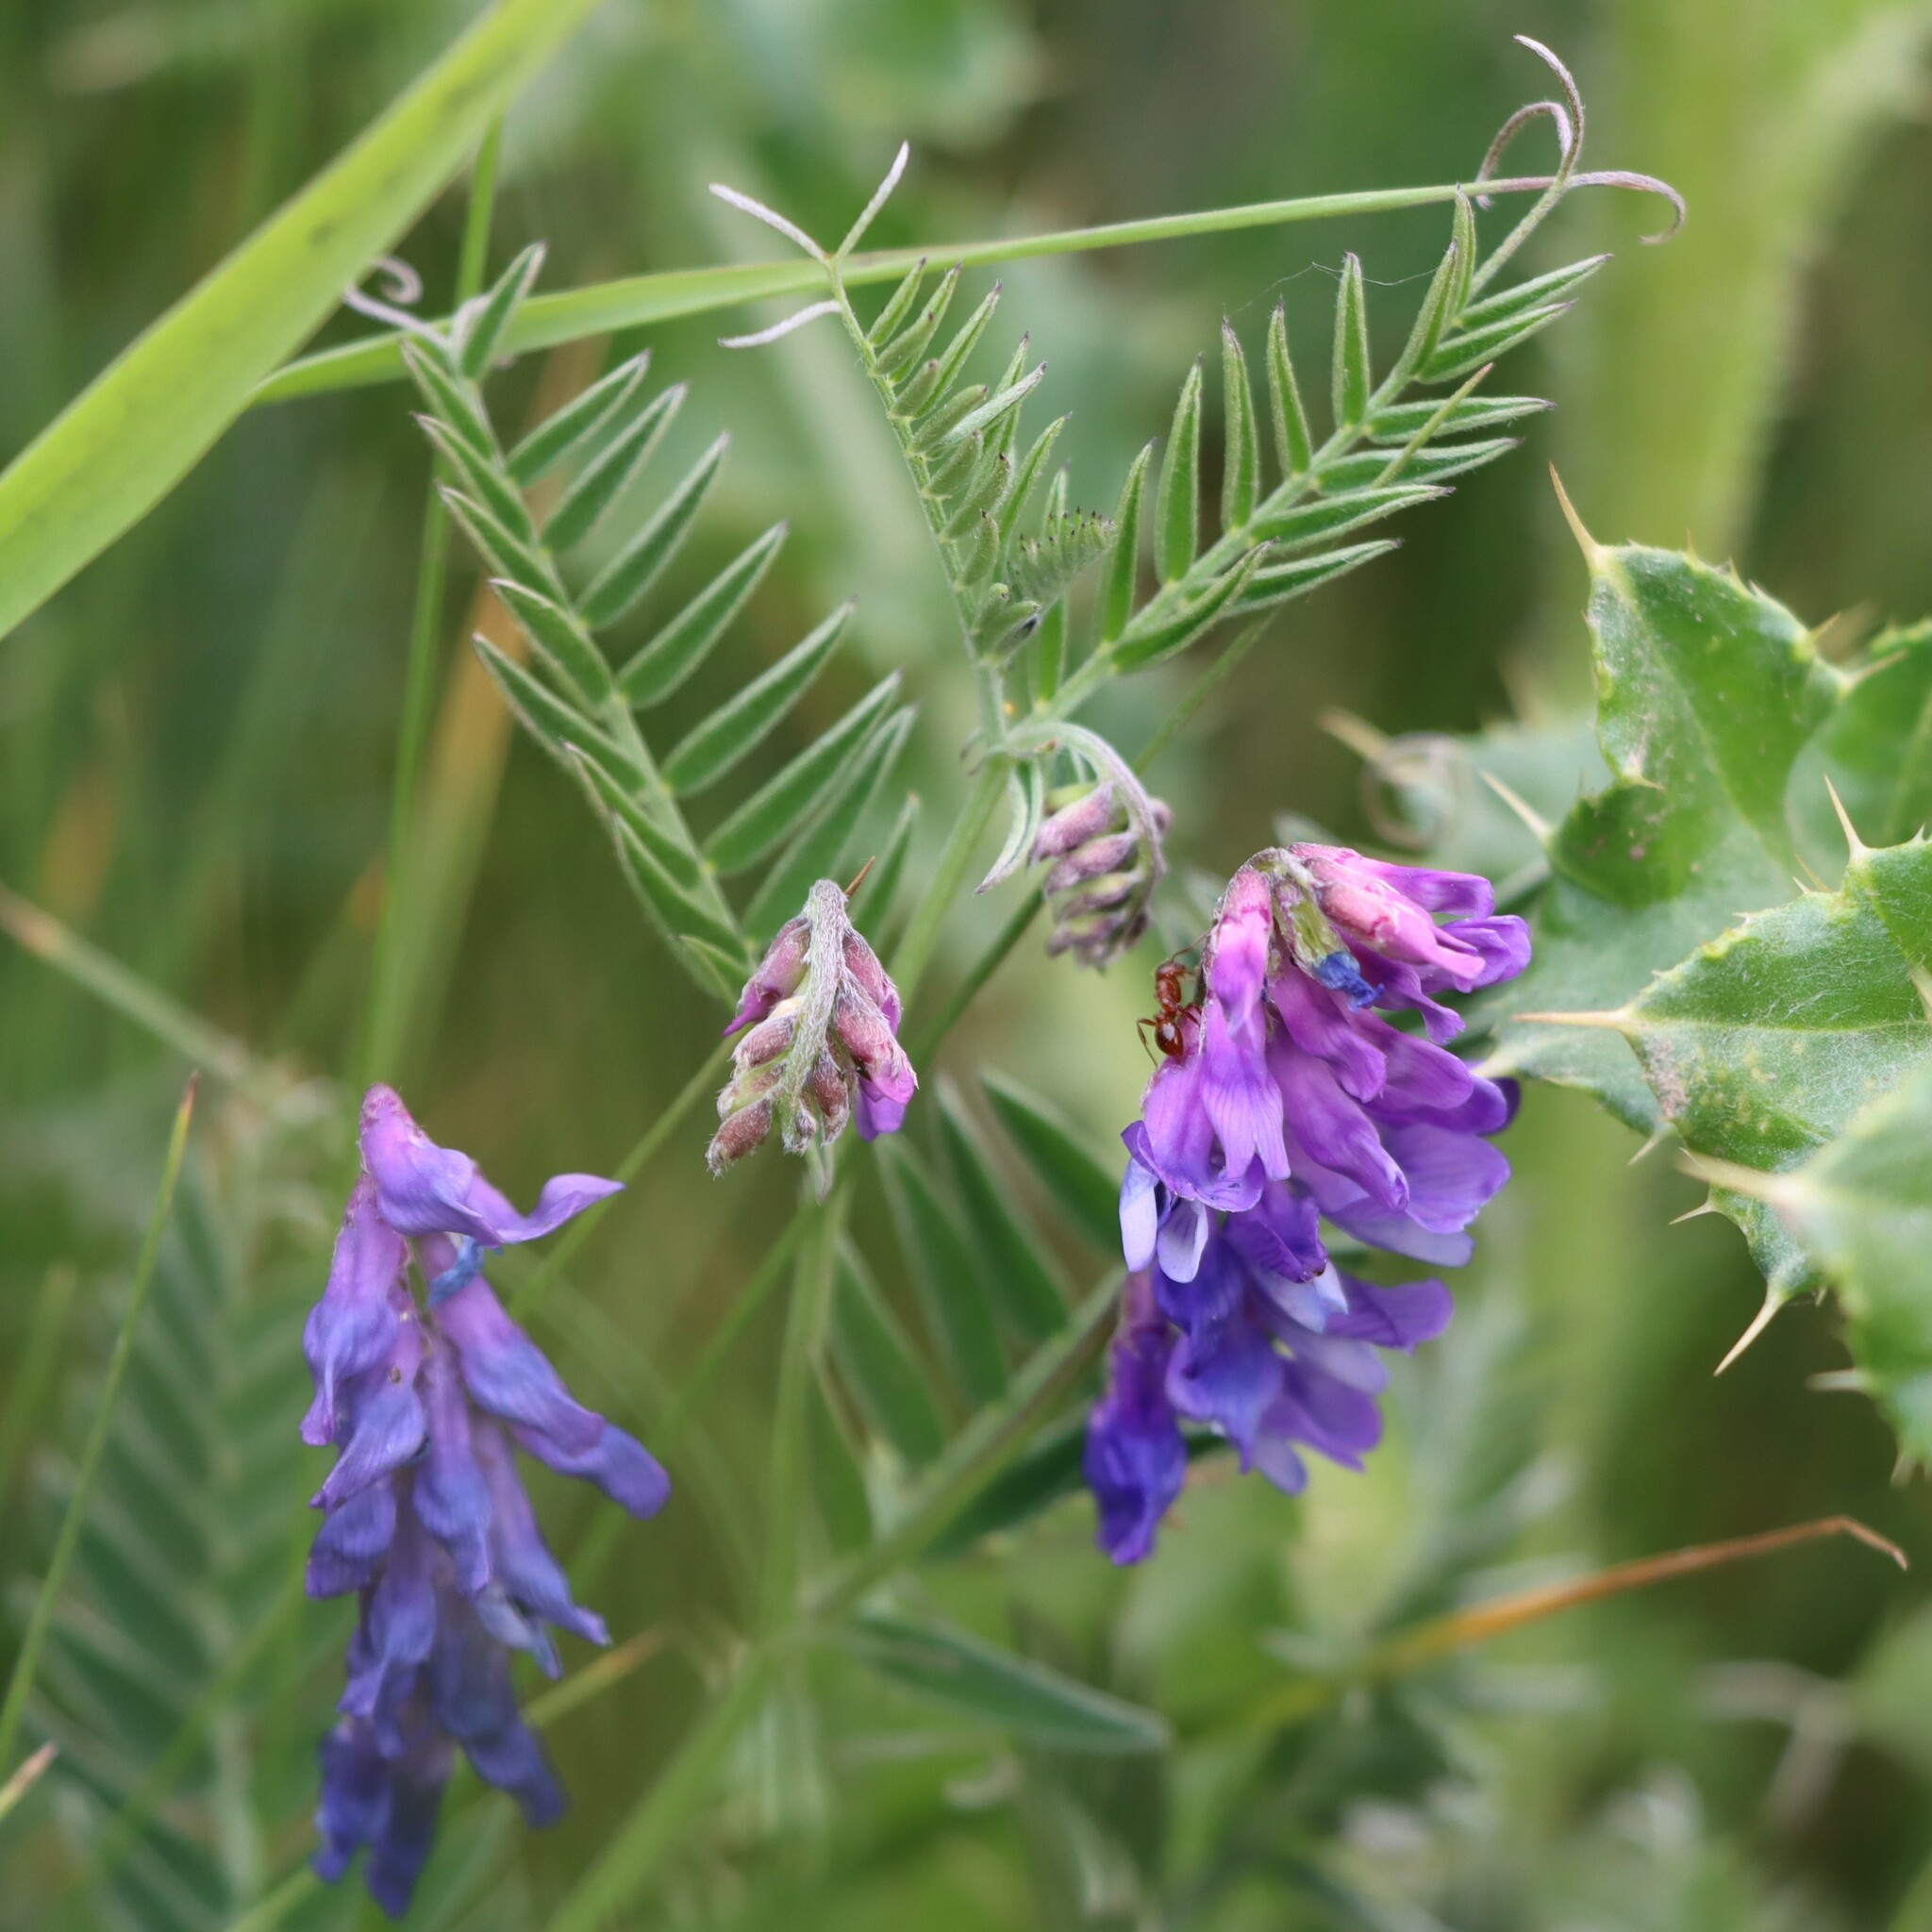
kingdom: Plantae
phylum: Tracheophyta
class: Magnoliopsida
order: Fabales
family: Fabaceae
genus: Vicia
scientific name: Vicia cracca
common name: Bird vetch
